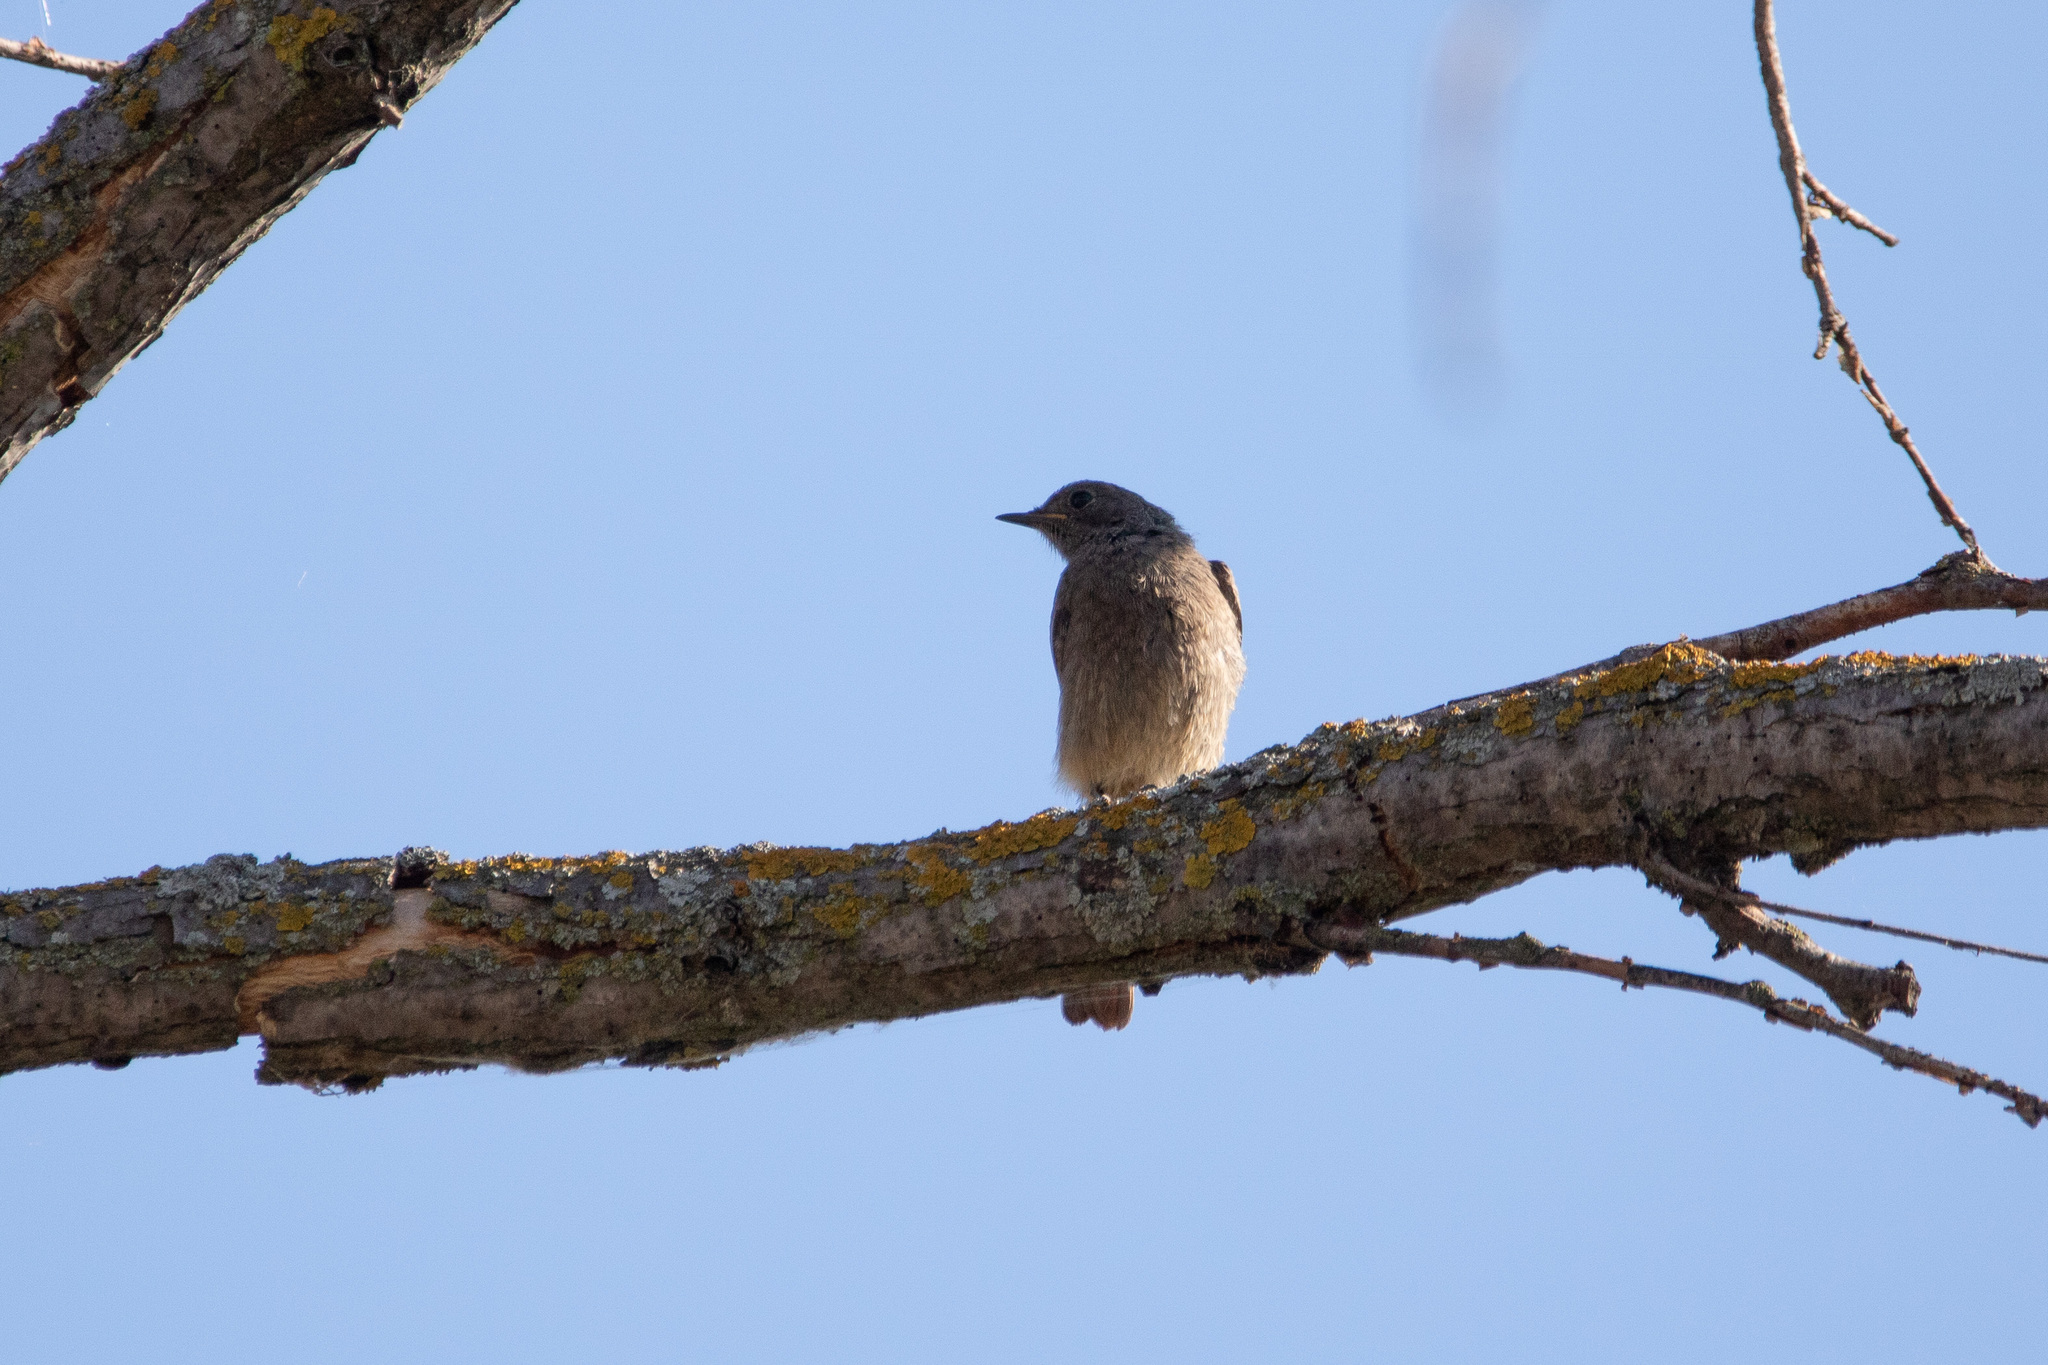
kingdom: Animalia
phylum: Chordata
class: Aves
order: Passeriformes
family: Muscicapidae
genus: Phoenicurus
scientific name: Phoenicurus ochruros
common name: Black redstart
